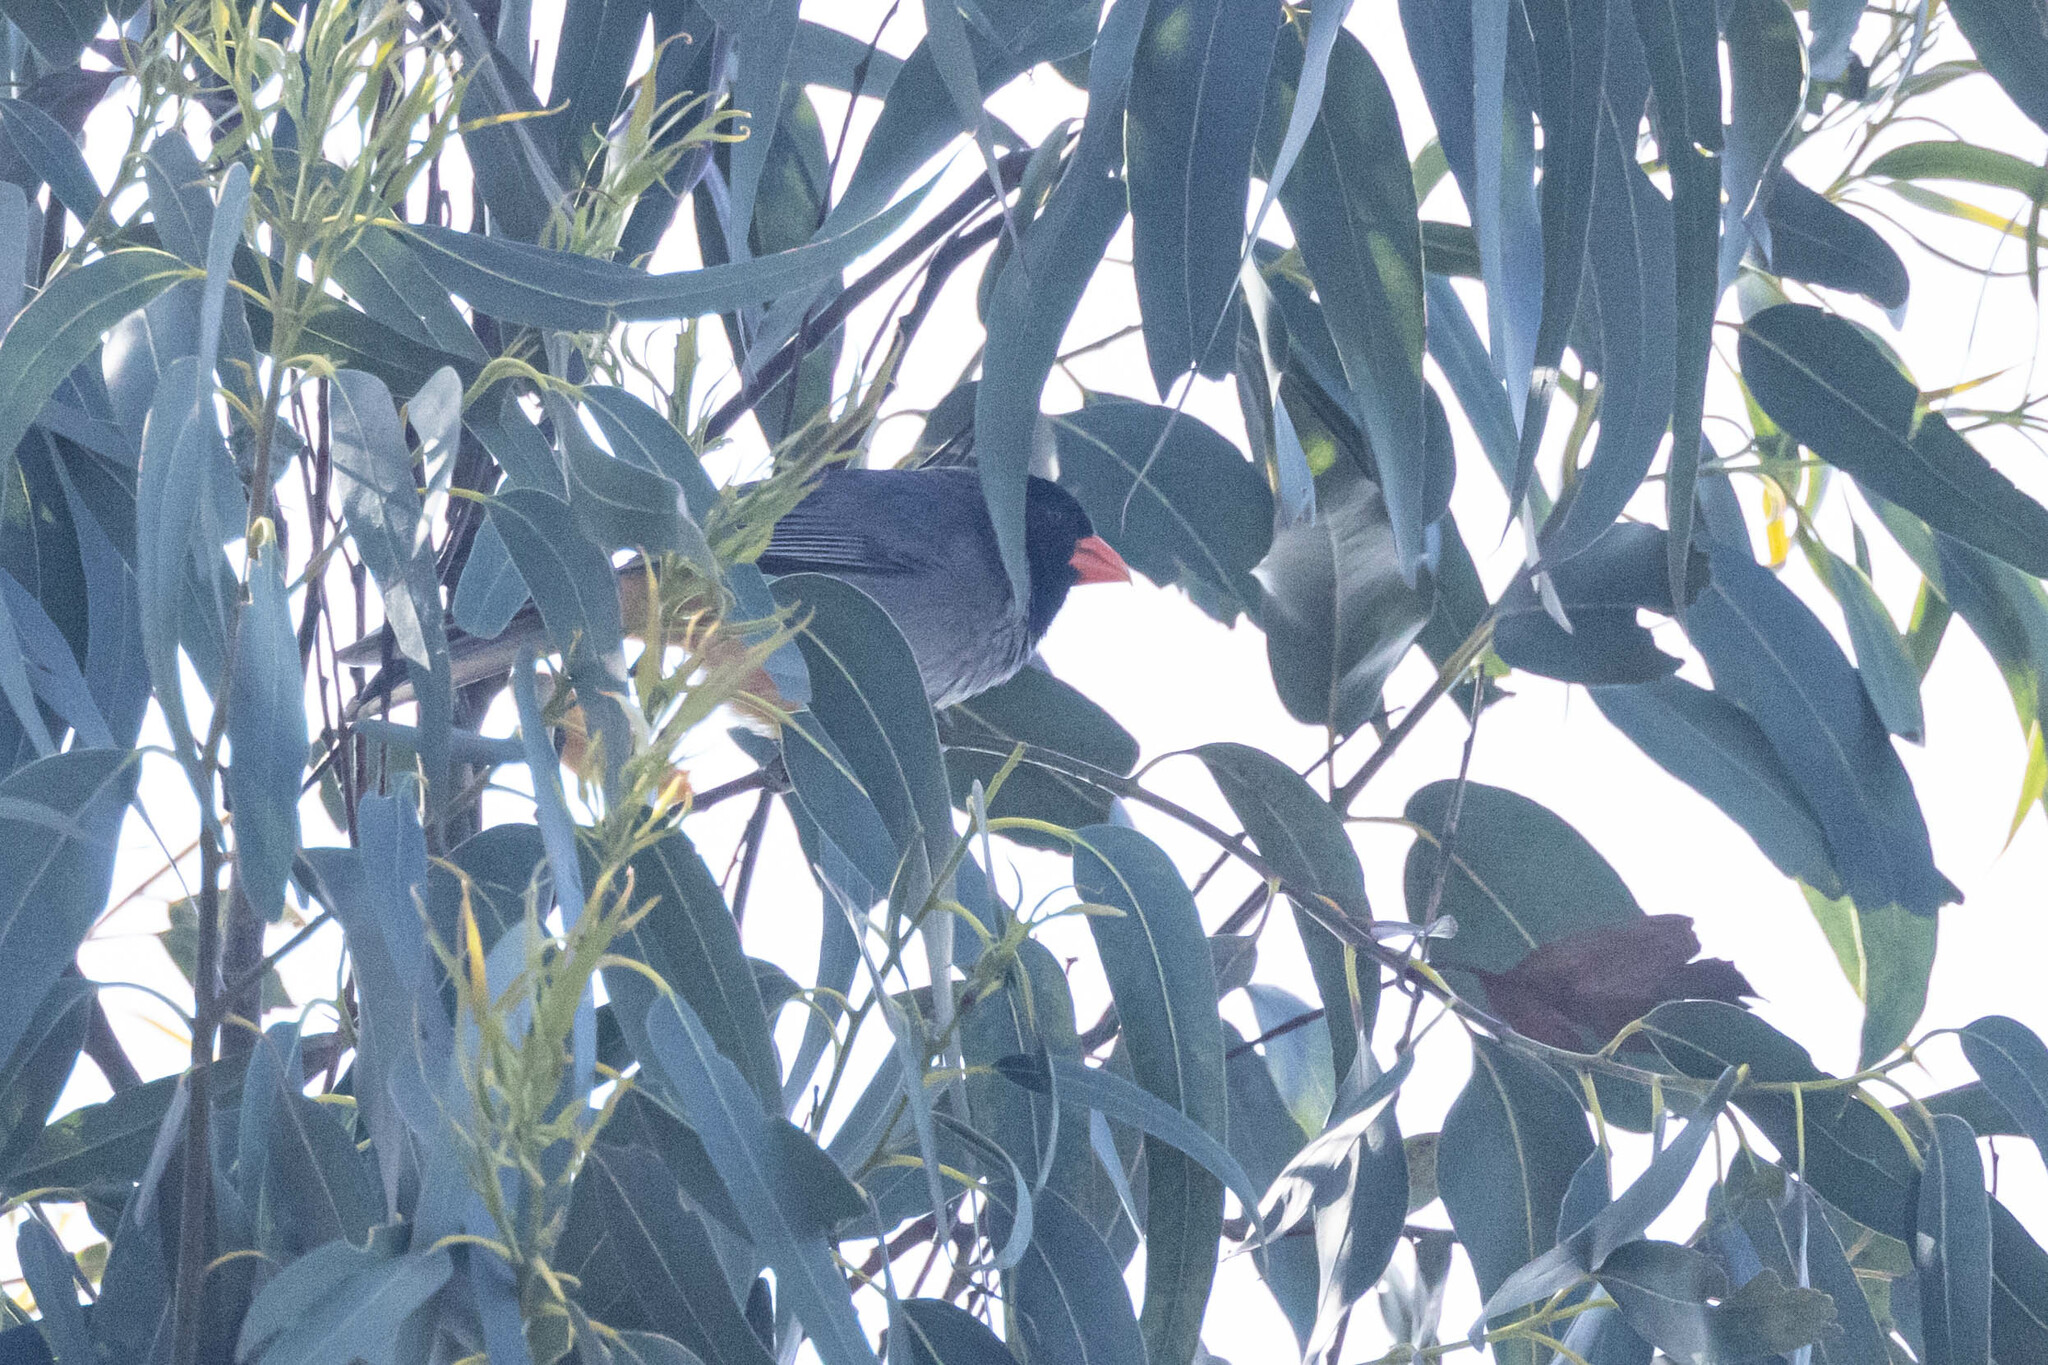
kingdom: Animalia
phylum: Chordata
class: Aves
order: Passeriformes
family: Thraupidae
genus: Saltator
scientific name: Saltator nigriceps
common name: Black-cowled saltator
